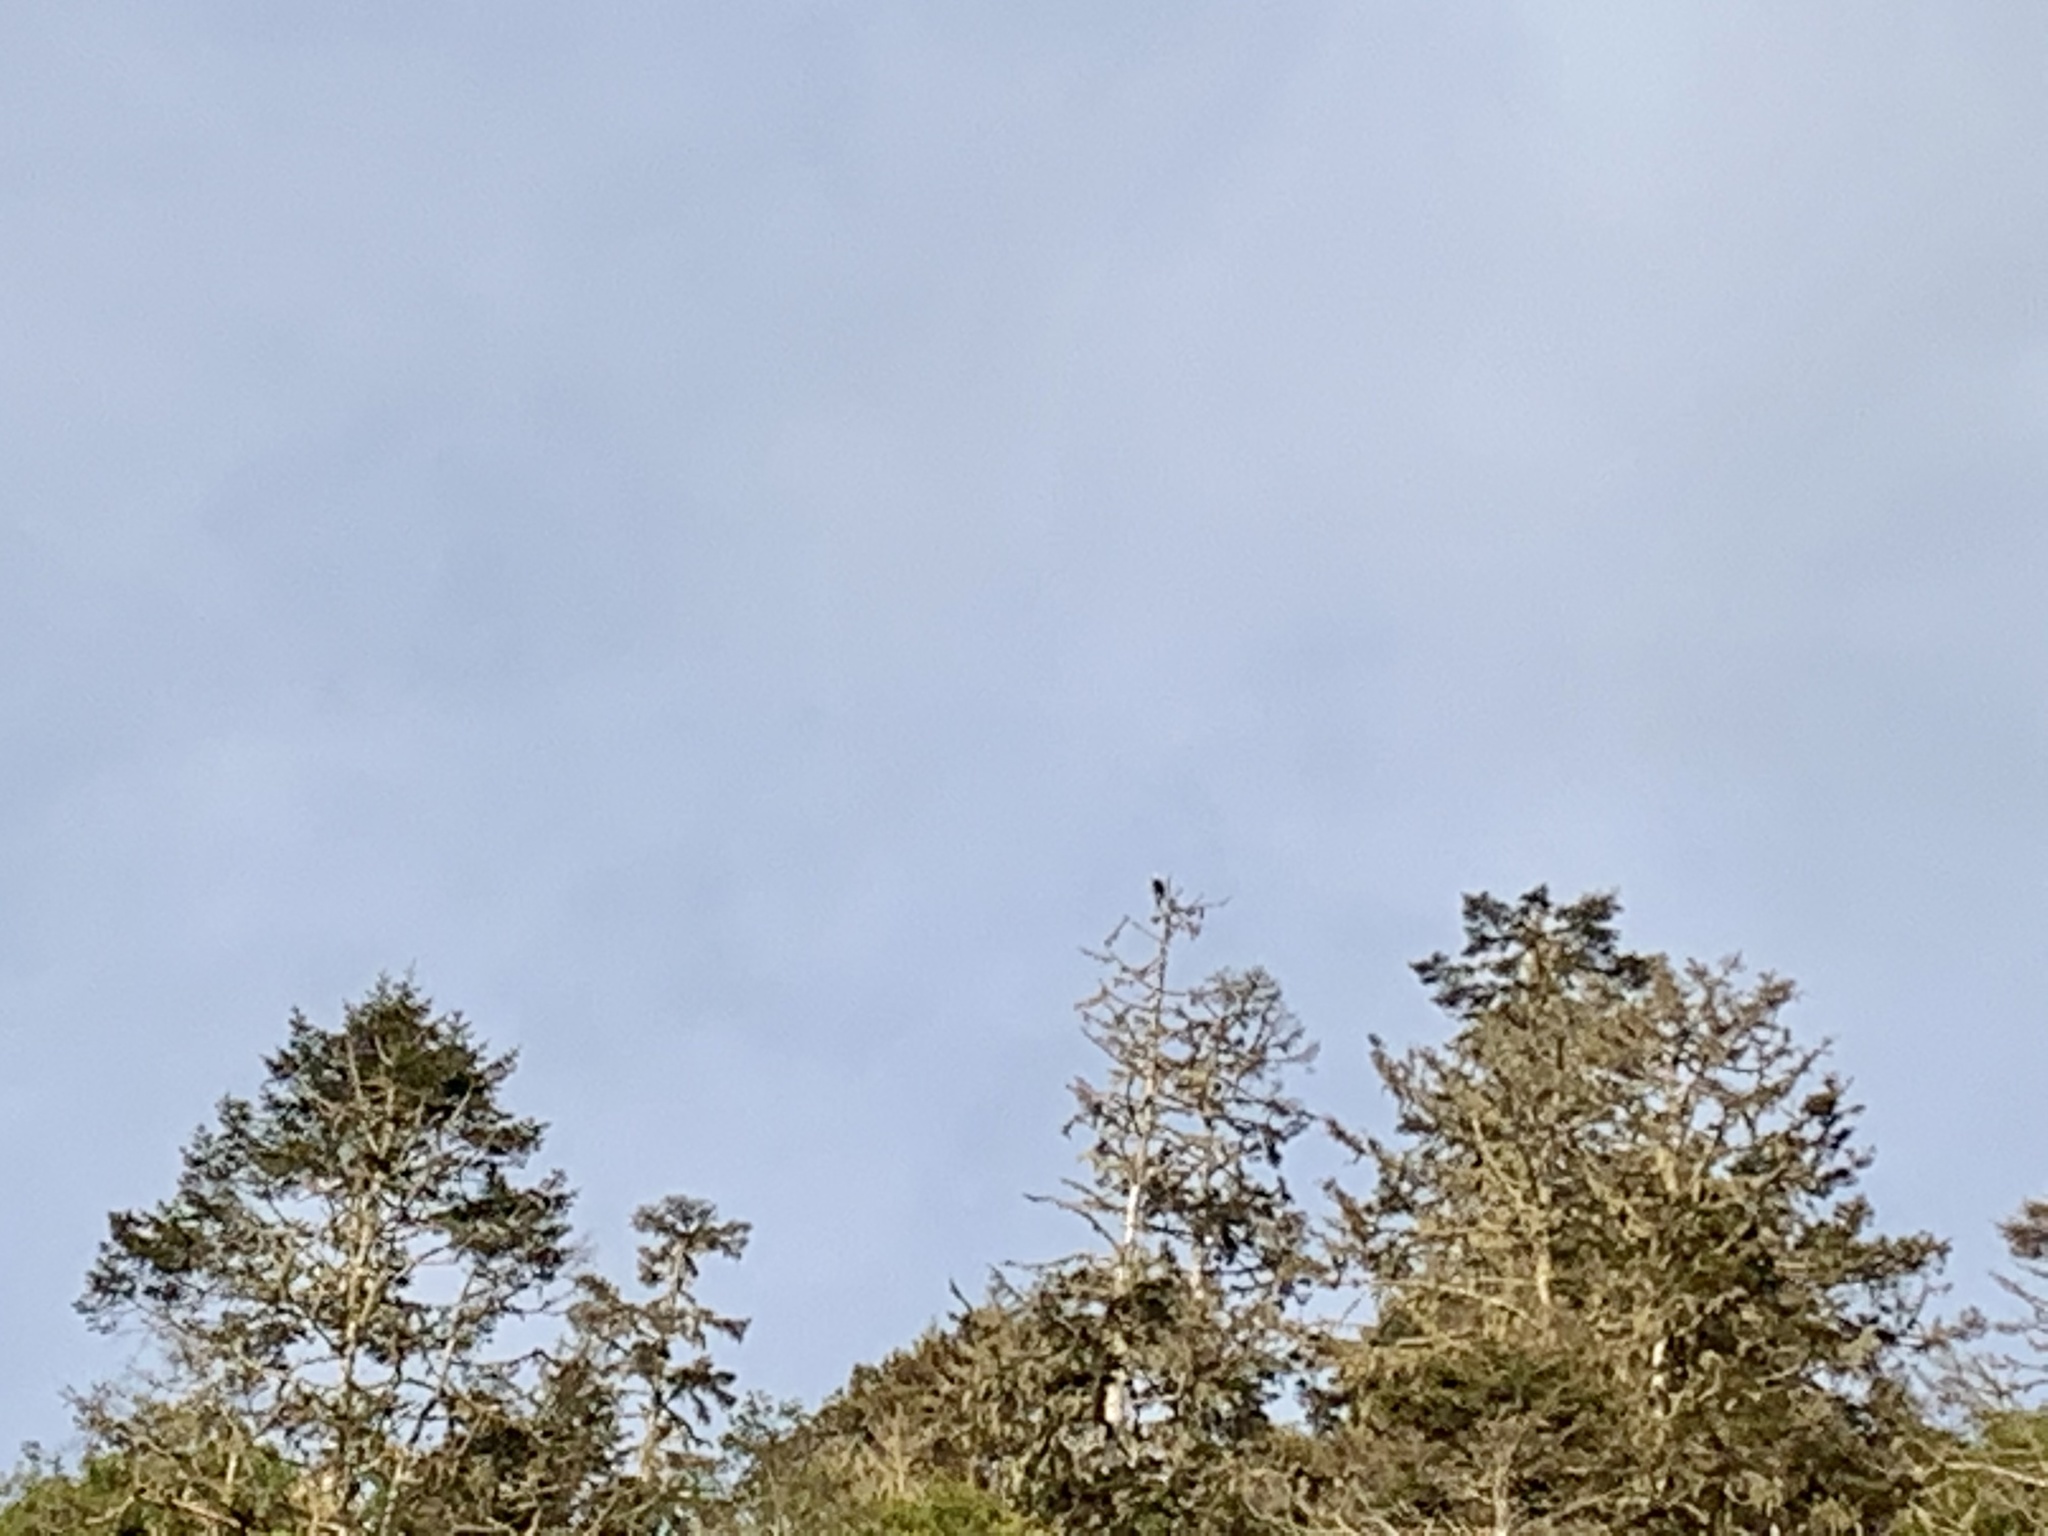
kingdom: Animalia
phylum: Chordata
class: Aves
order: Accipitriformes
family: Accipitridae
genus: Haliaeetus
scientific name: Haliaeetus leucocephalus
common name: Bald eagle
